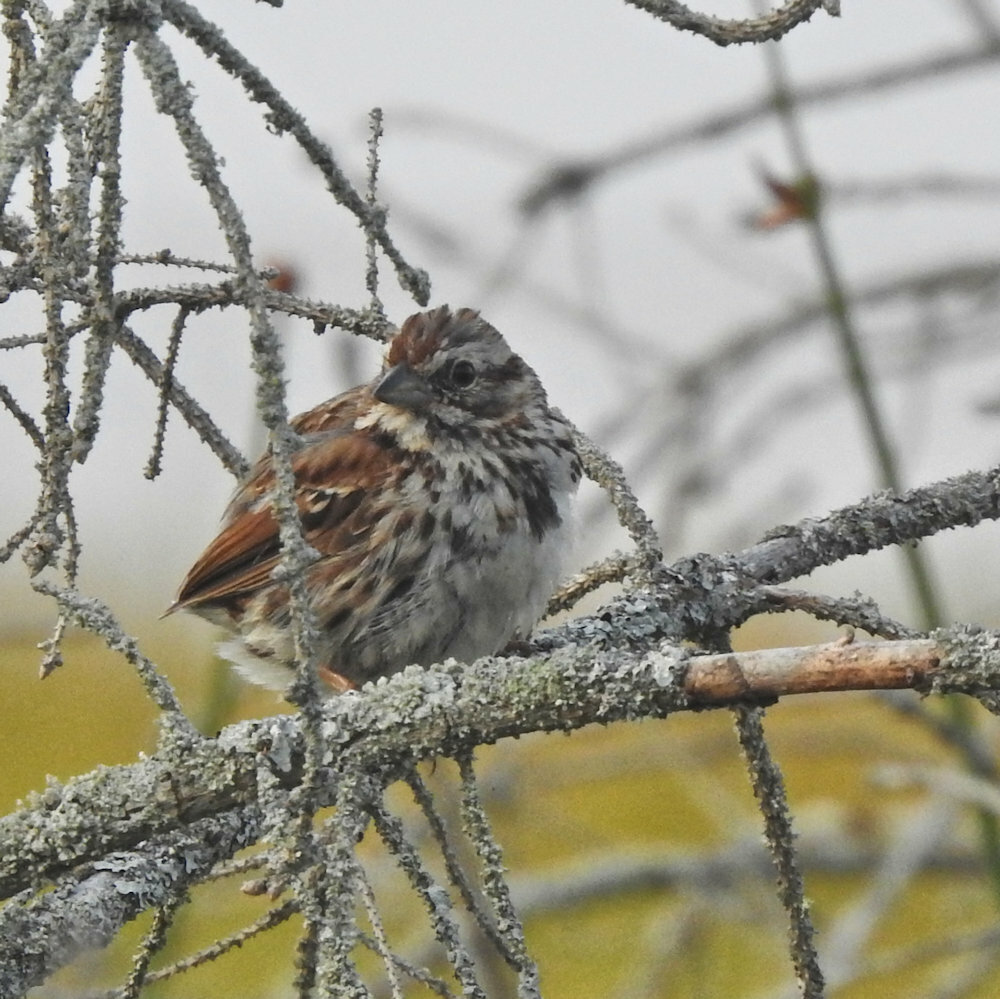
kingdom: Animalia
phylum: Chordata
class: Aves
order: Passeriformes
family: Passerellidae
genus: Melospiza
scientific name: Melospiza melodia
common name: Song sparrow
